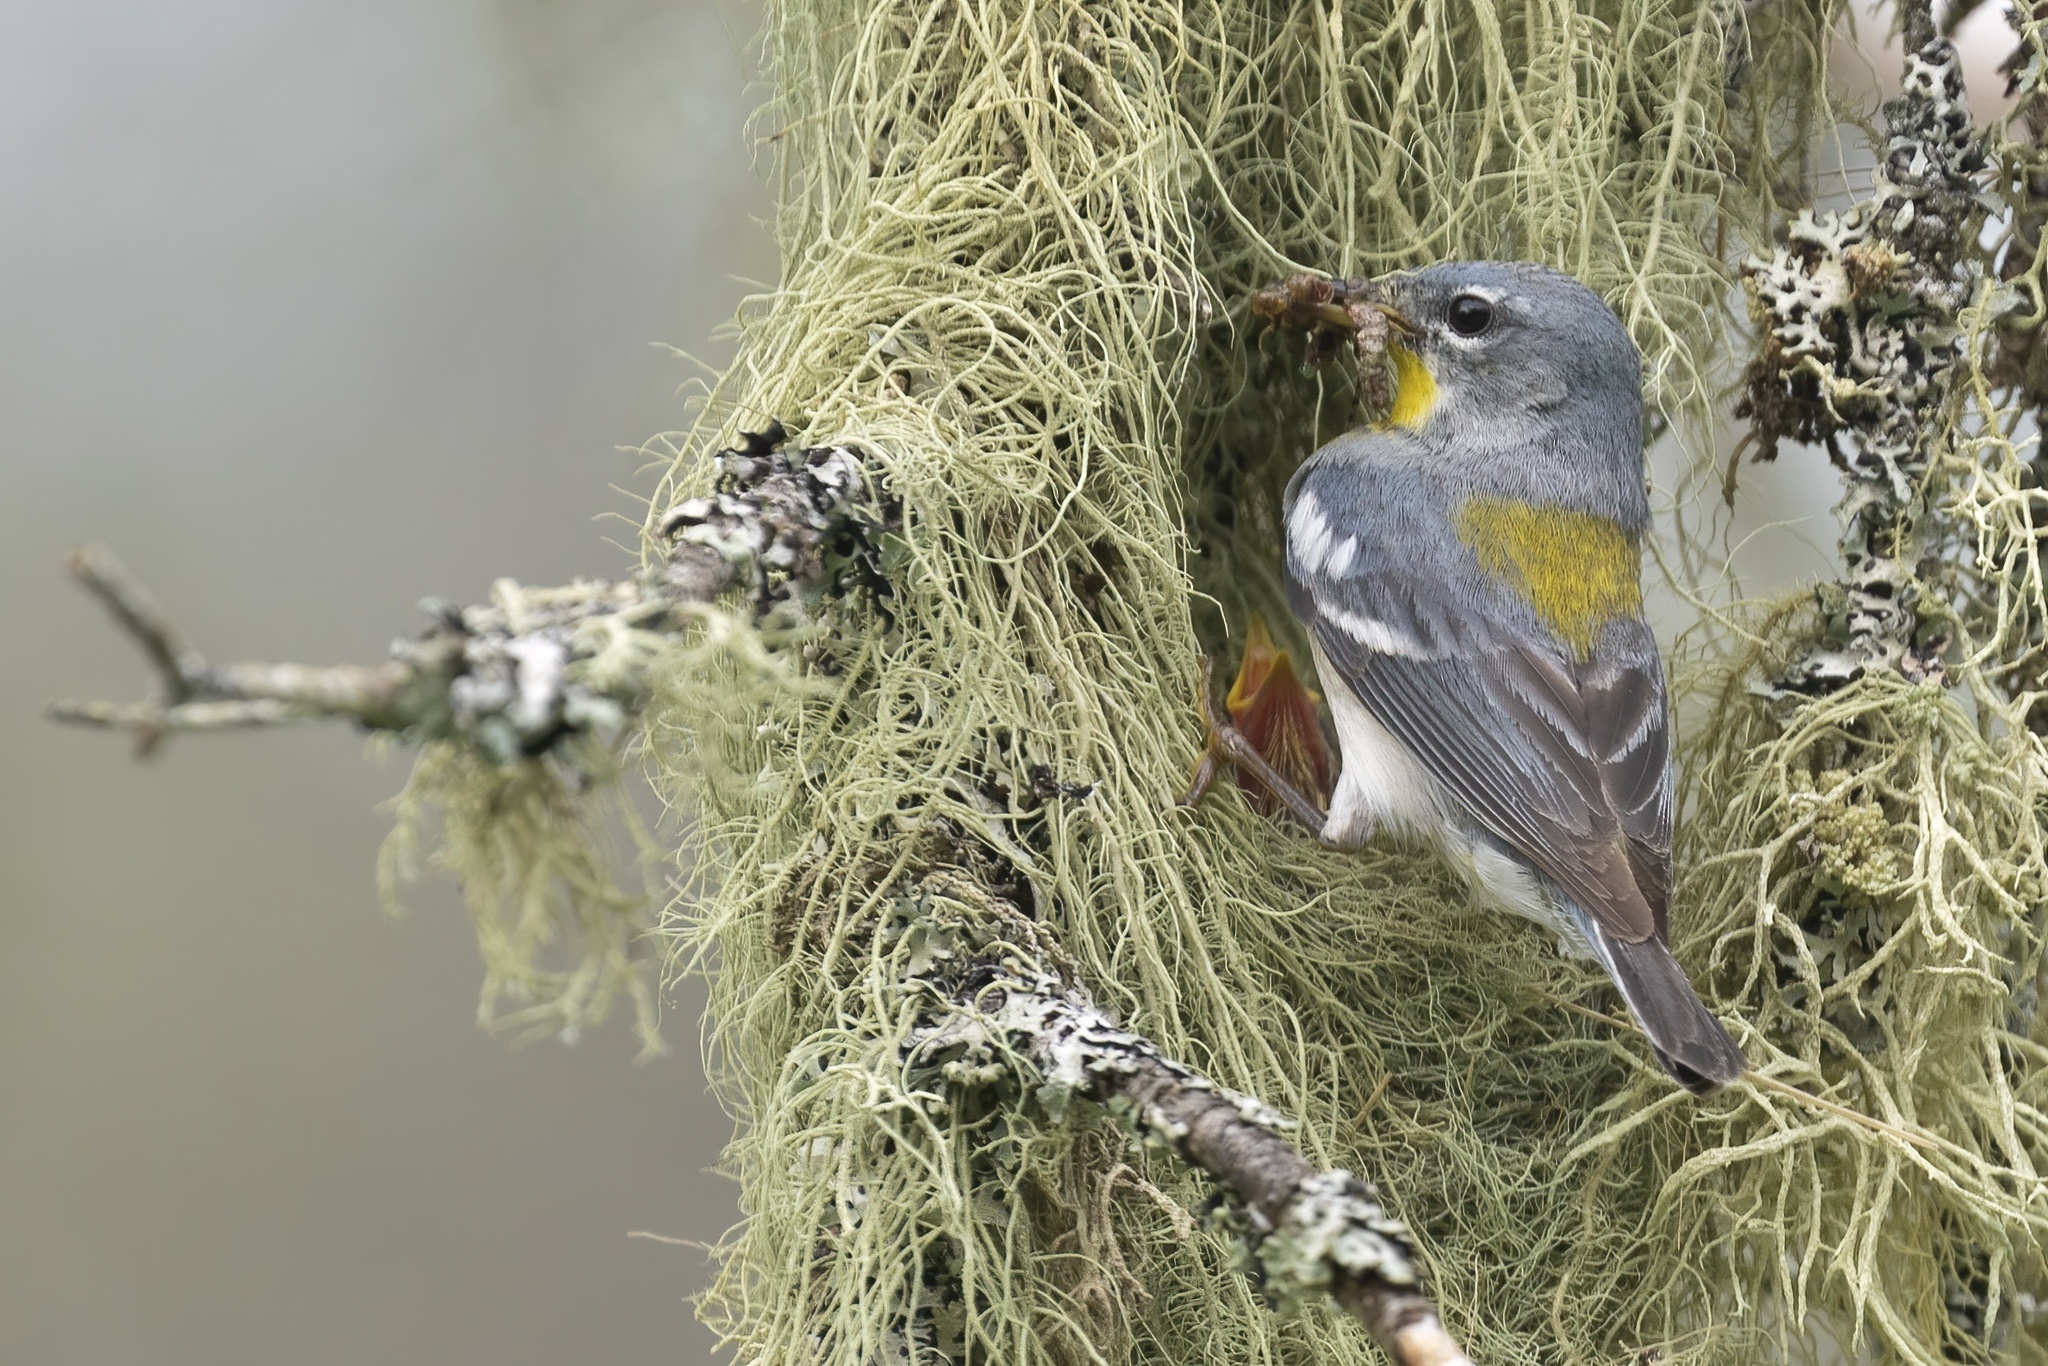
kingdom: Animalia
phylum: Chordata
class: Aves
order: Passeriformes
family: Parulidae
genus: Setophaga
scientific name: Setophaga americana
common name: Northern parula
